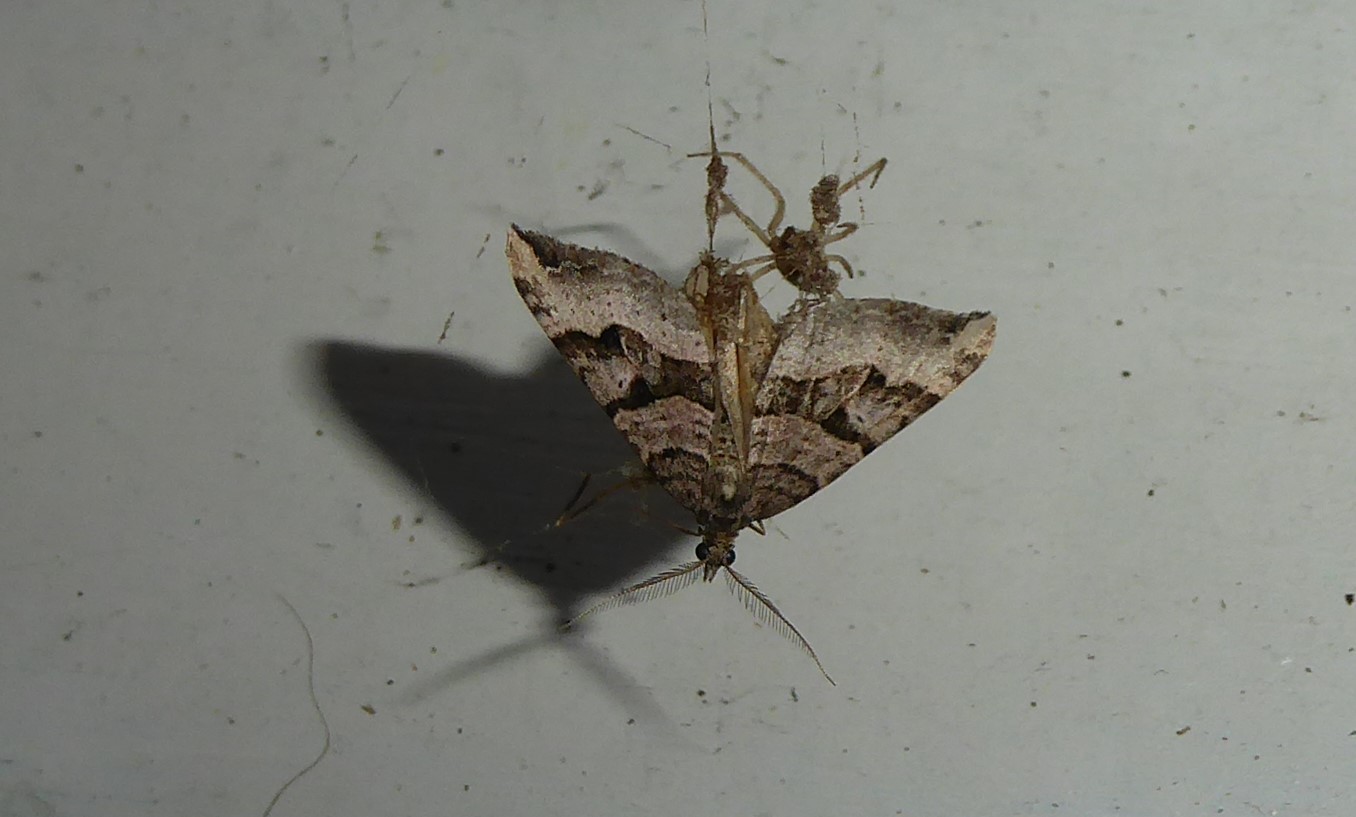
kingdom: Animalia
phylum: Arthropoda
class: Insecta
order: Lepidoptera
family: Geometridae
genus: Xanthorhoe
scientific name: Xanthorhoe semifissata
